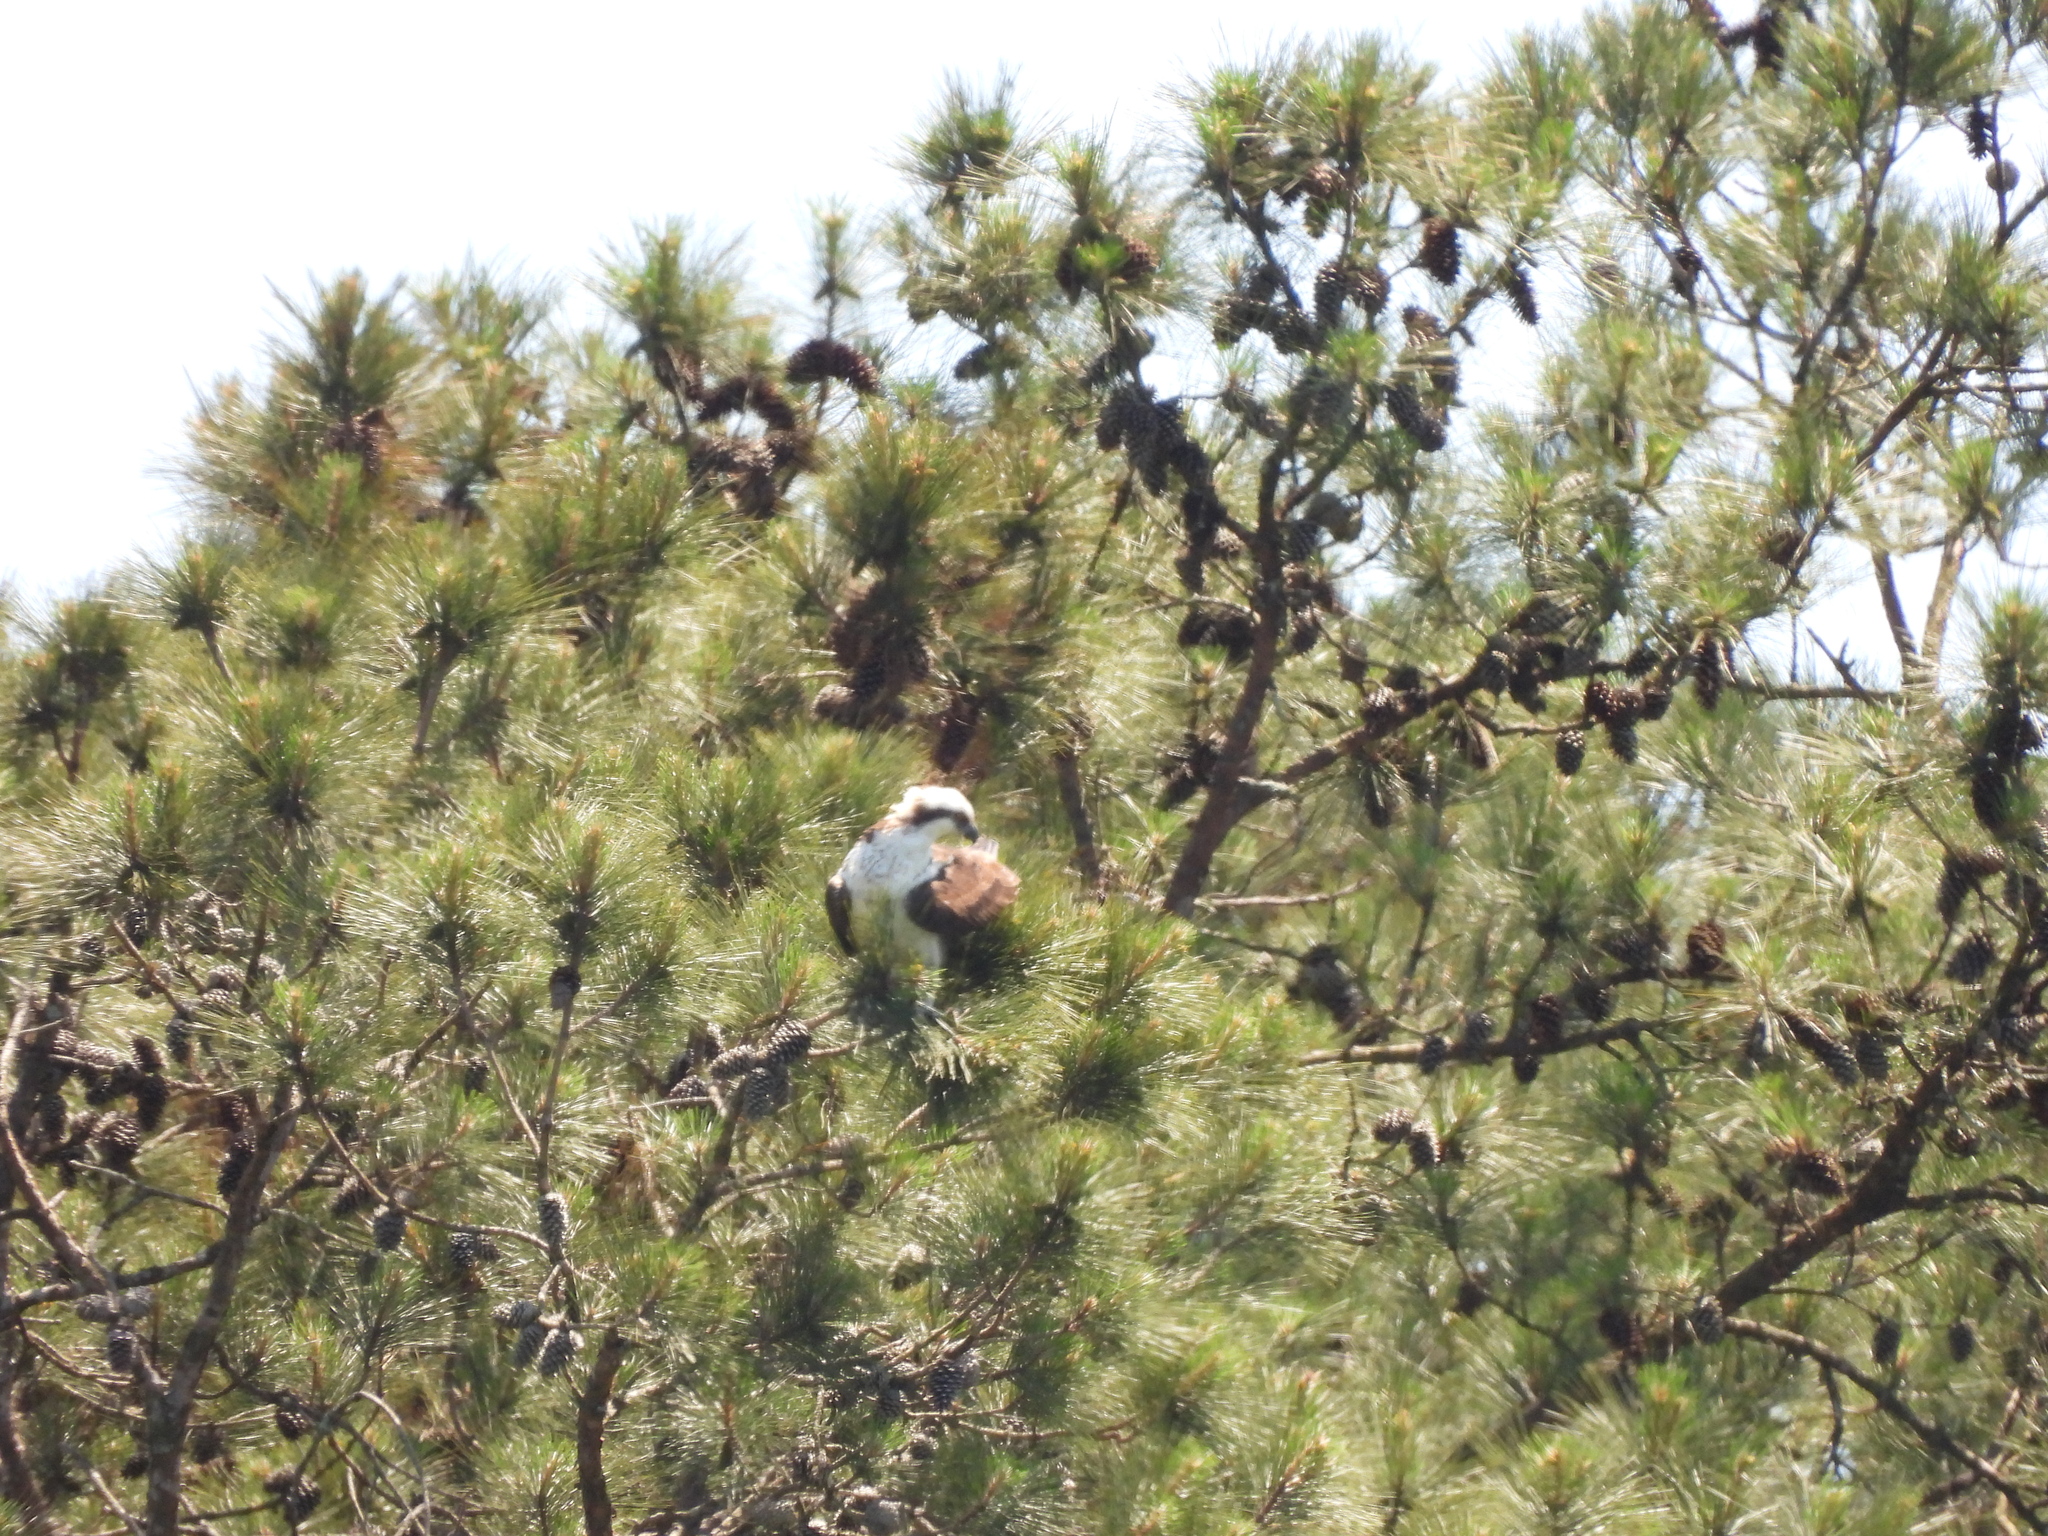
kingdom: Animalia
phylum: Chordata
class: Aves
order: Accipitriformes
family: Pandionidae
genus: Pandion
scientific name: Pandion haliaetus
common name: Osprey
